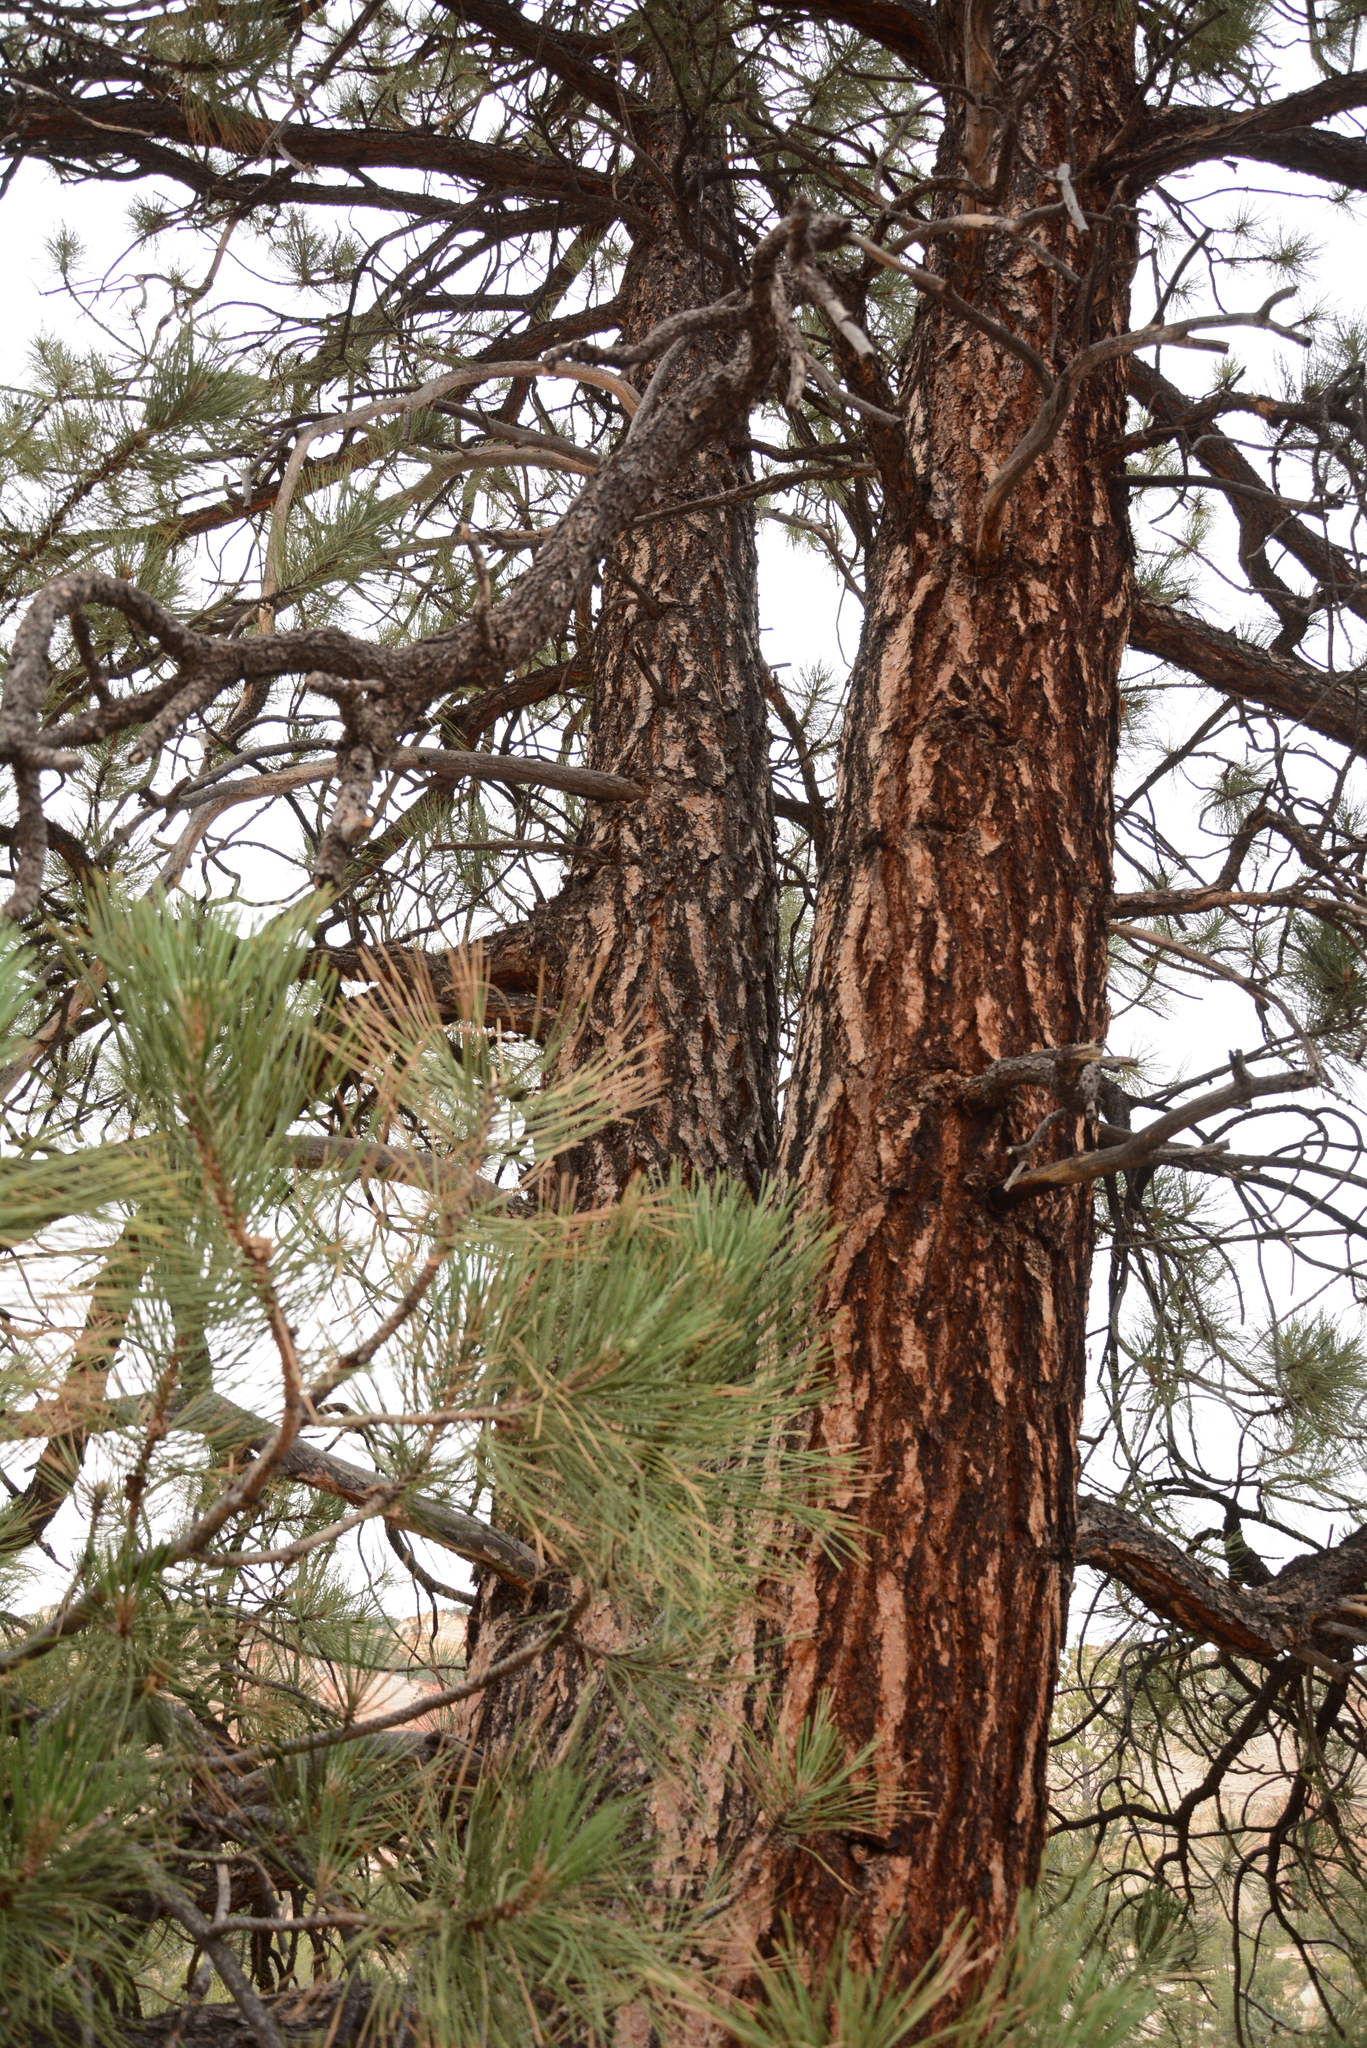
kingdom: Plantae
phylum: Tracheophyta
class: Pinopsida
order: Pinales
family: Pinaceae
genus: Pinus
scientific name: Pinus ponderosa
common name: Western yellow-pine
